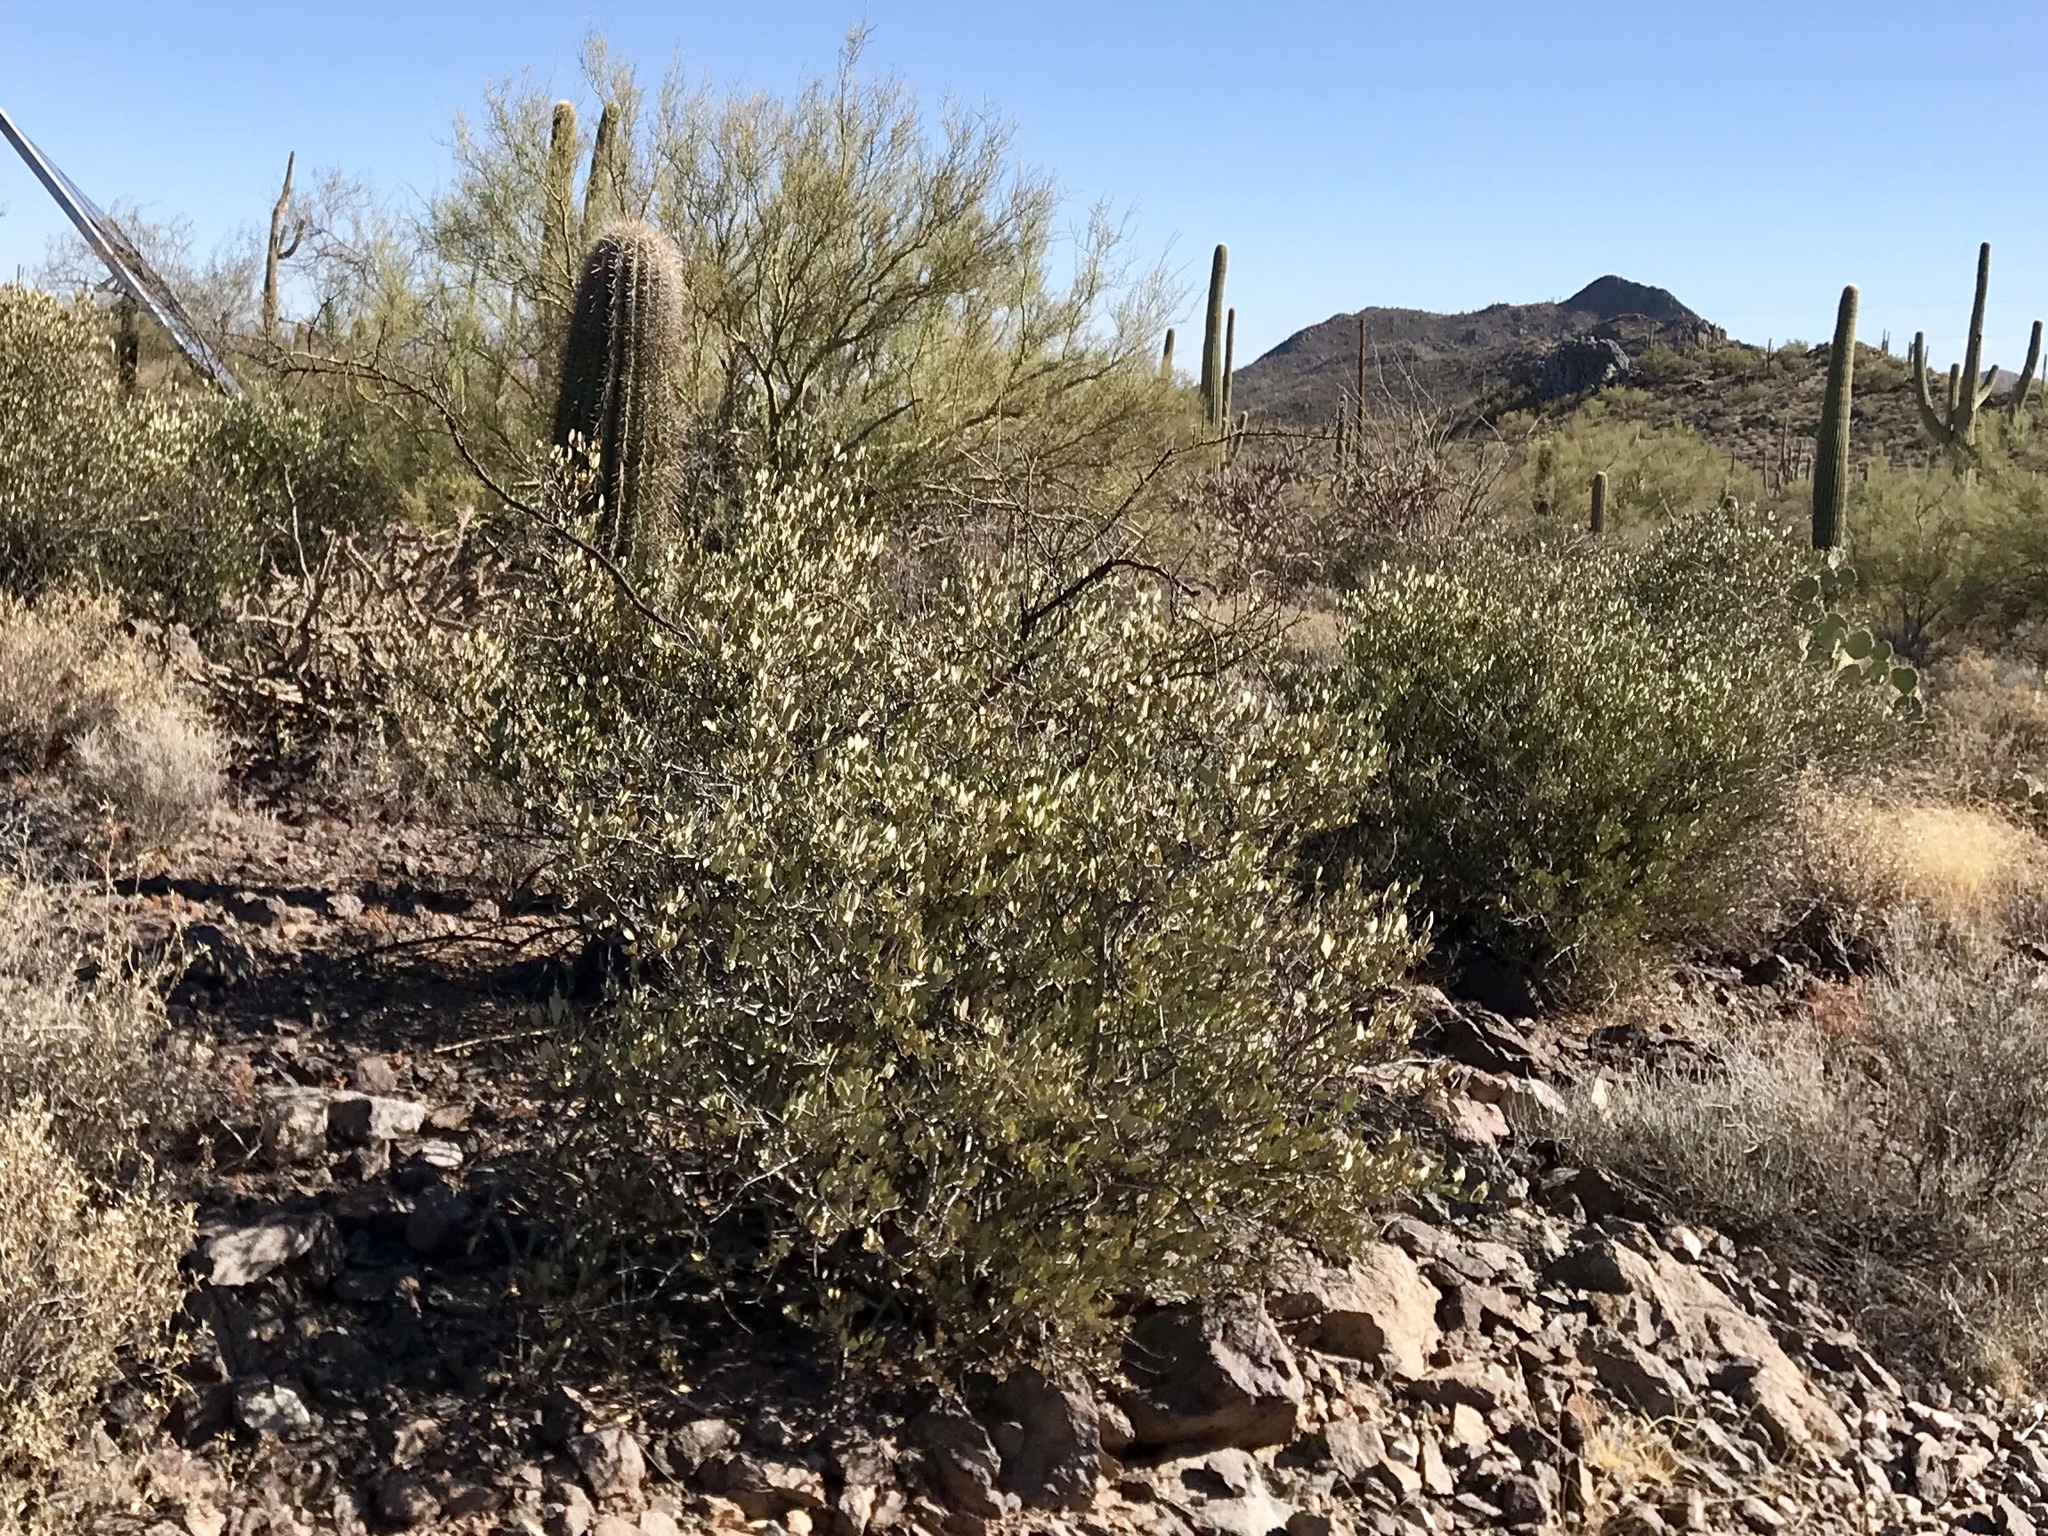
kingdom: Plantae
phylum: Tracheophyta
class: Magnoliopsida
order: Caryophyllales
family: Simmondsiaceae
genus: Simmondsia
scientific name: Simmondsia chinensis
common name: Jojoba
